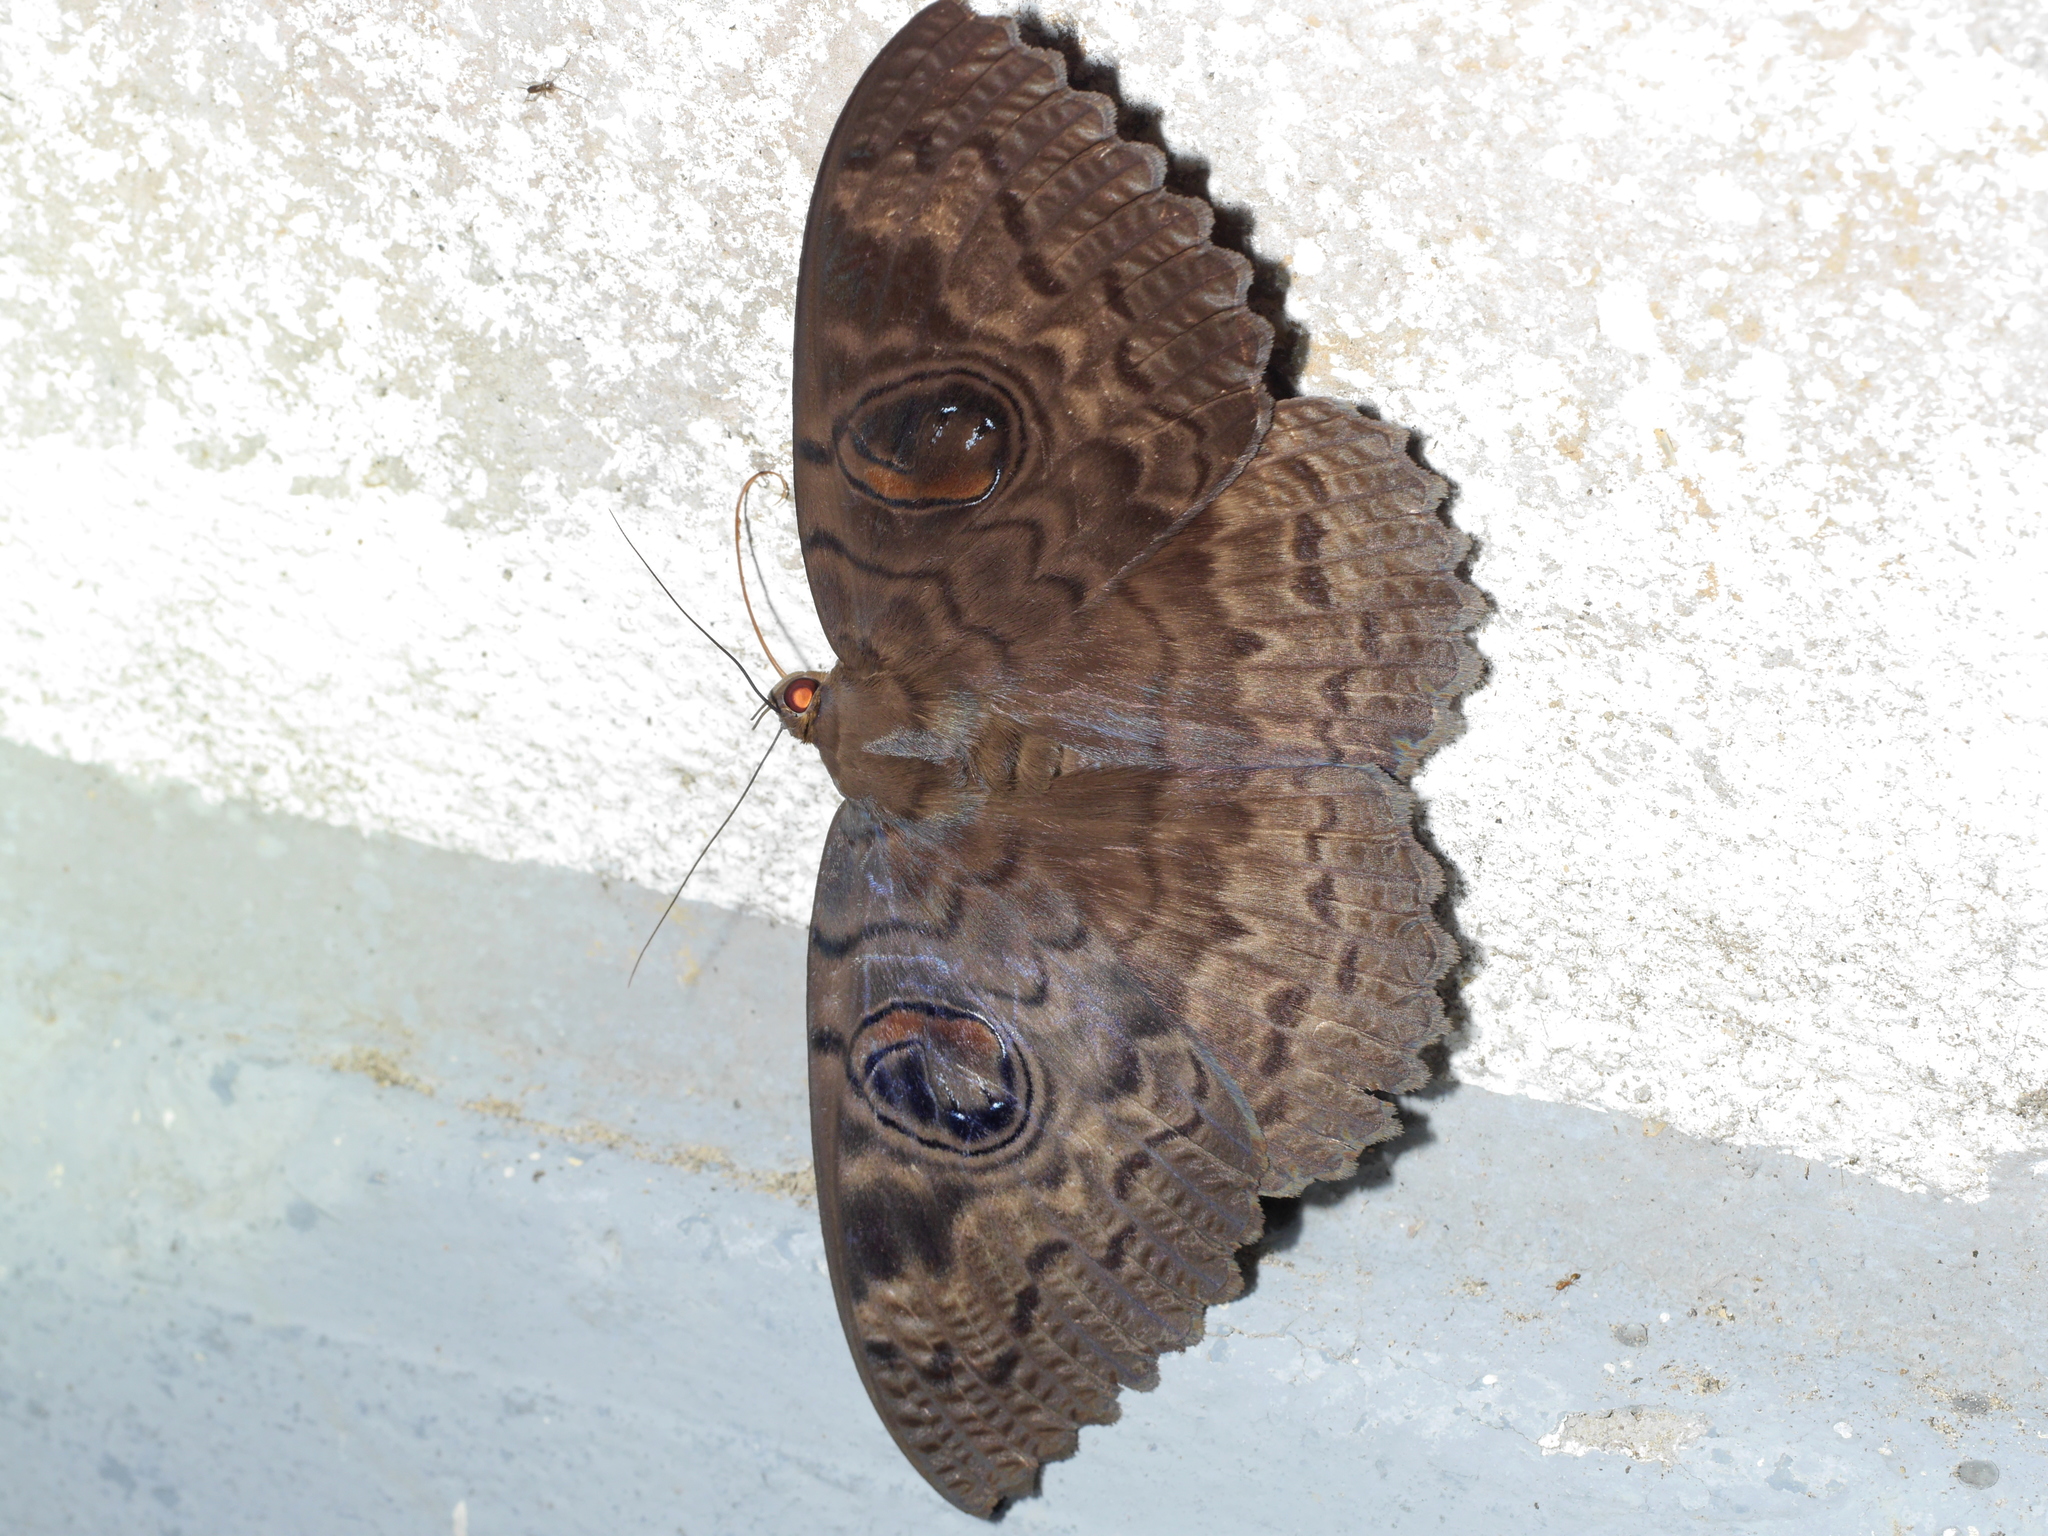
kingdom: Animalia
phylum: Arthropoda
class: Insecta
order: Lepidoptera
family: Erebidae
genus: Erebus
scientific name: Erebus walkeri
